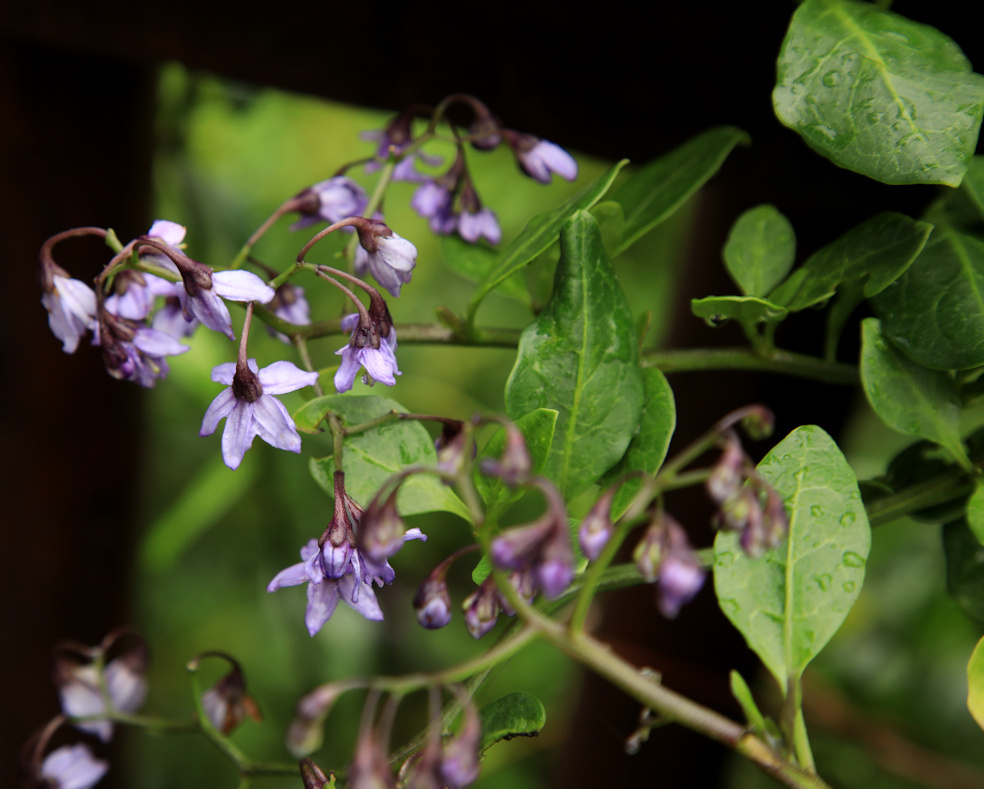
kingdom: Plantae
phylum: Tracheophyta
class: Magnoliopsida
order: Solanales
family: Solanaceae
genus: Solanum
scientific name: Solanum africanum
